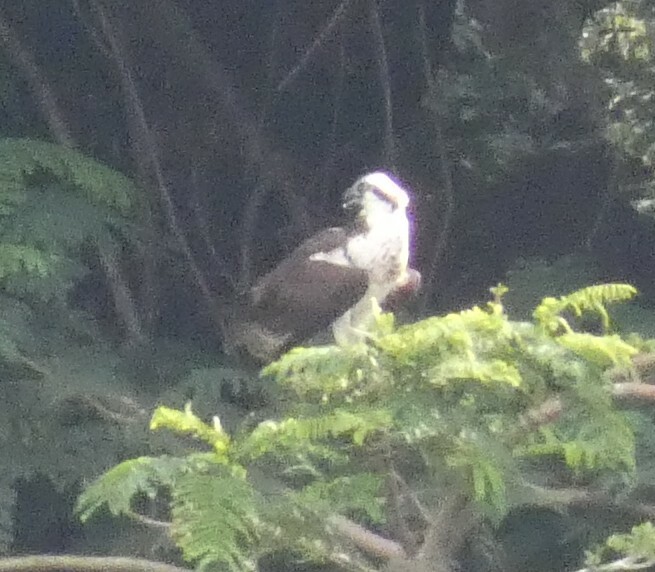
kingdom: Animalia
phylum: Chordata
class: Aves
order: Accipitriformes
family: Pandionidae
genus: Pandion
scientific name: Pandion haliaetus
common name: Osprey
